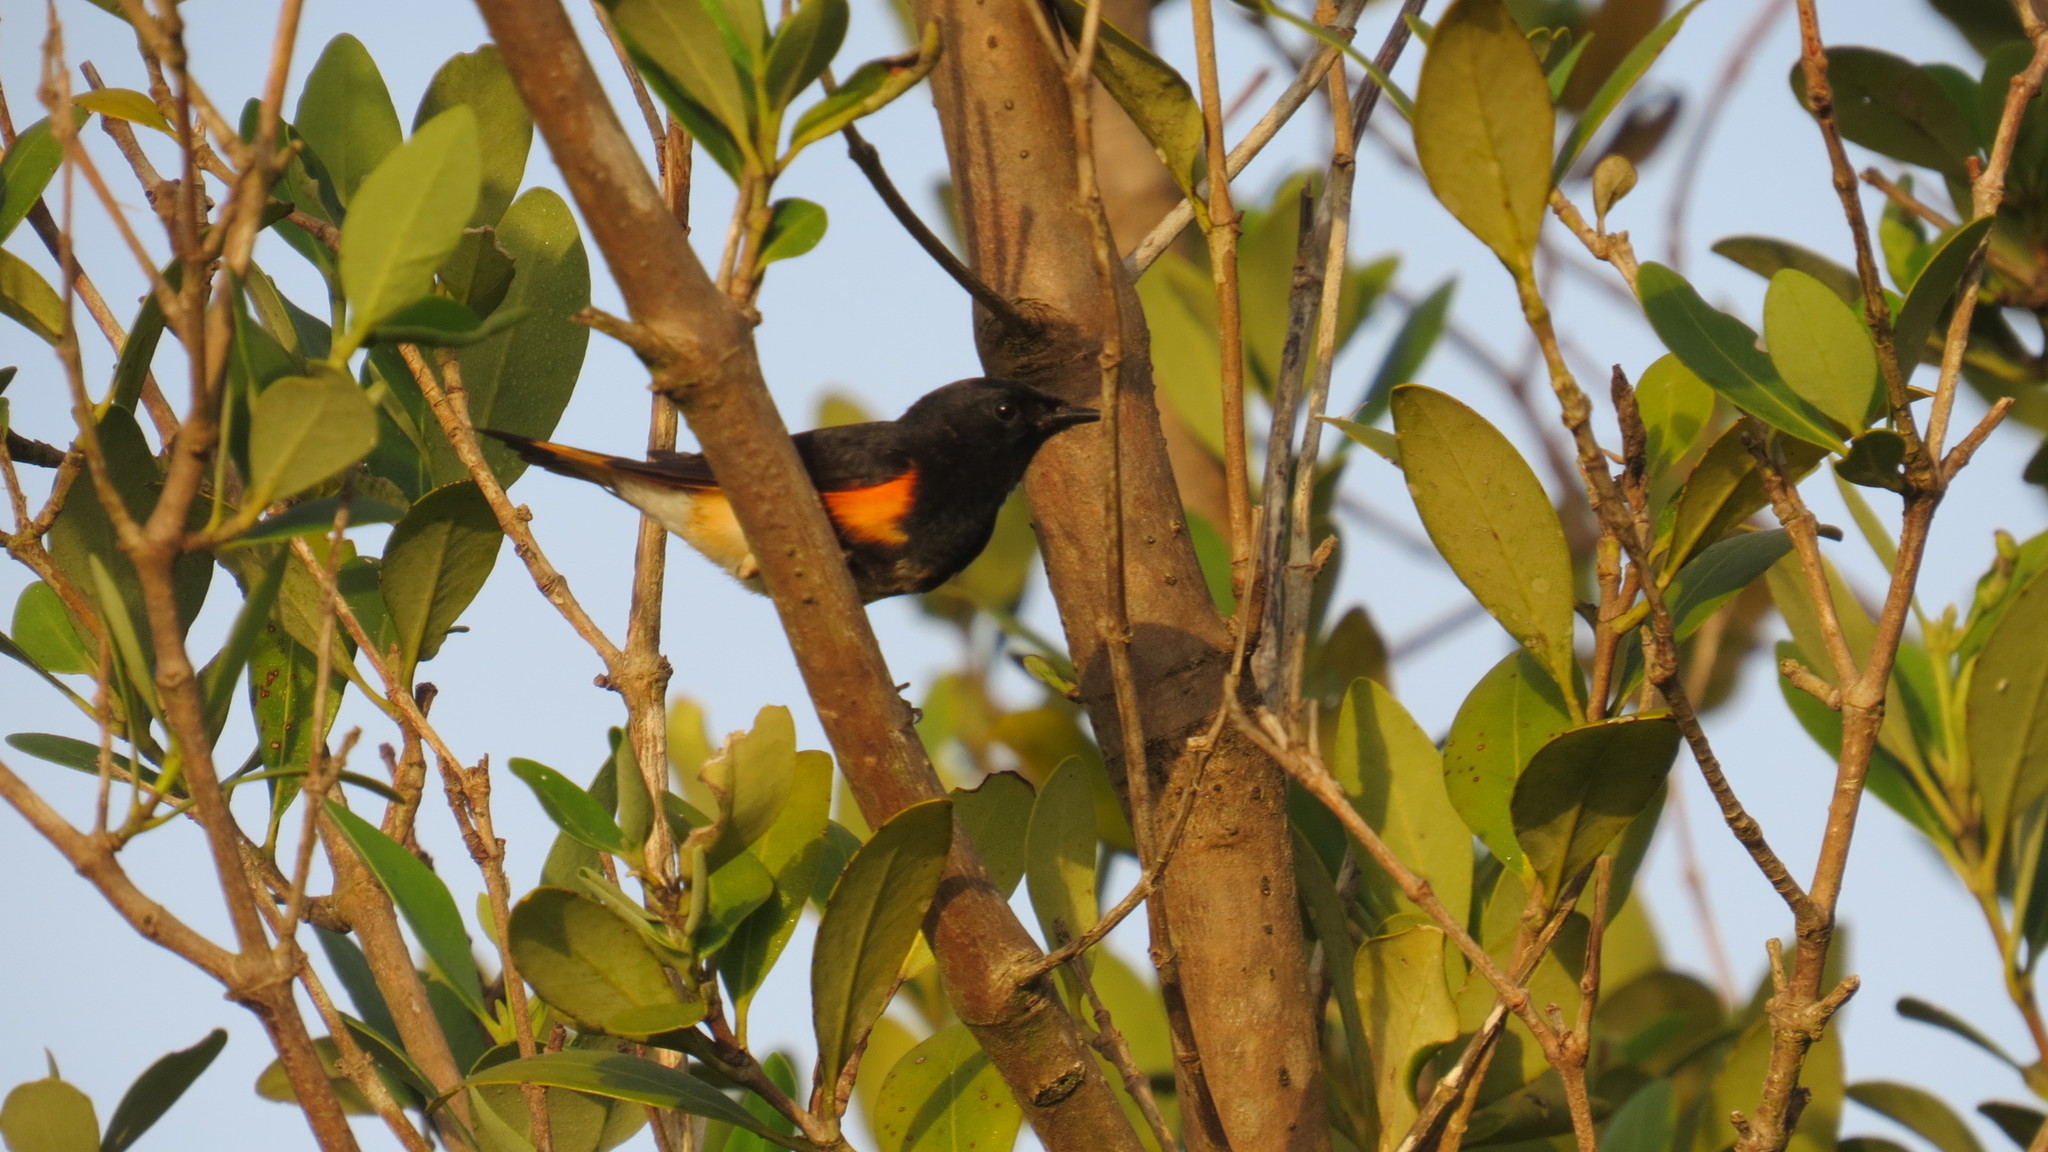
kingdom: Animalia
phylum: Chordata
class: Aves
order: Passeriformes
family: Parulidae
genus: Setophaga
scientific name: Setophaga ruticilla
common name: American redstart
